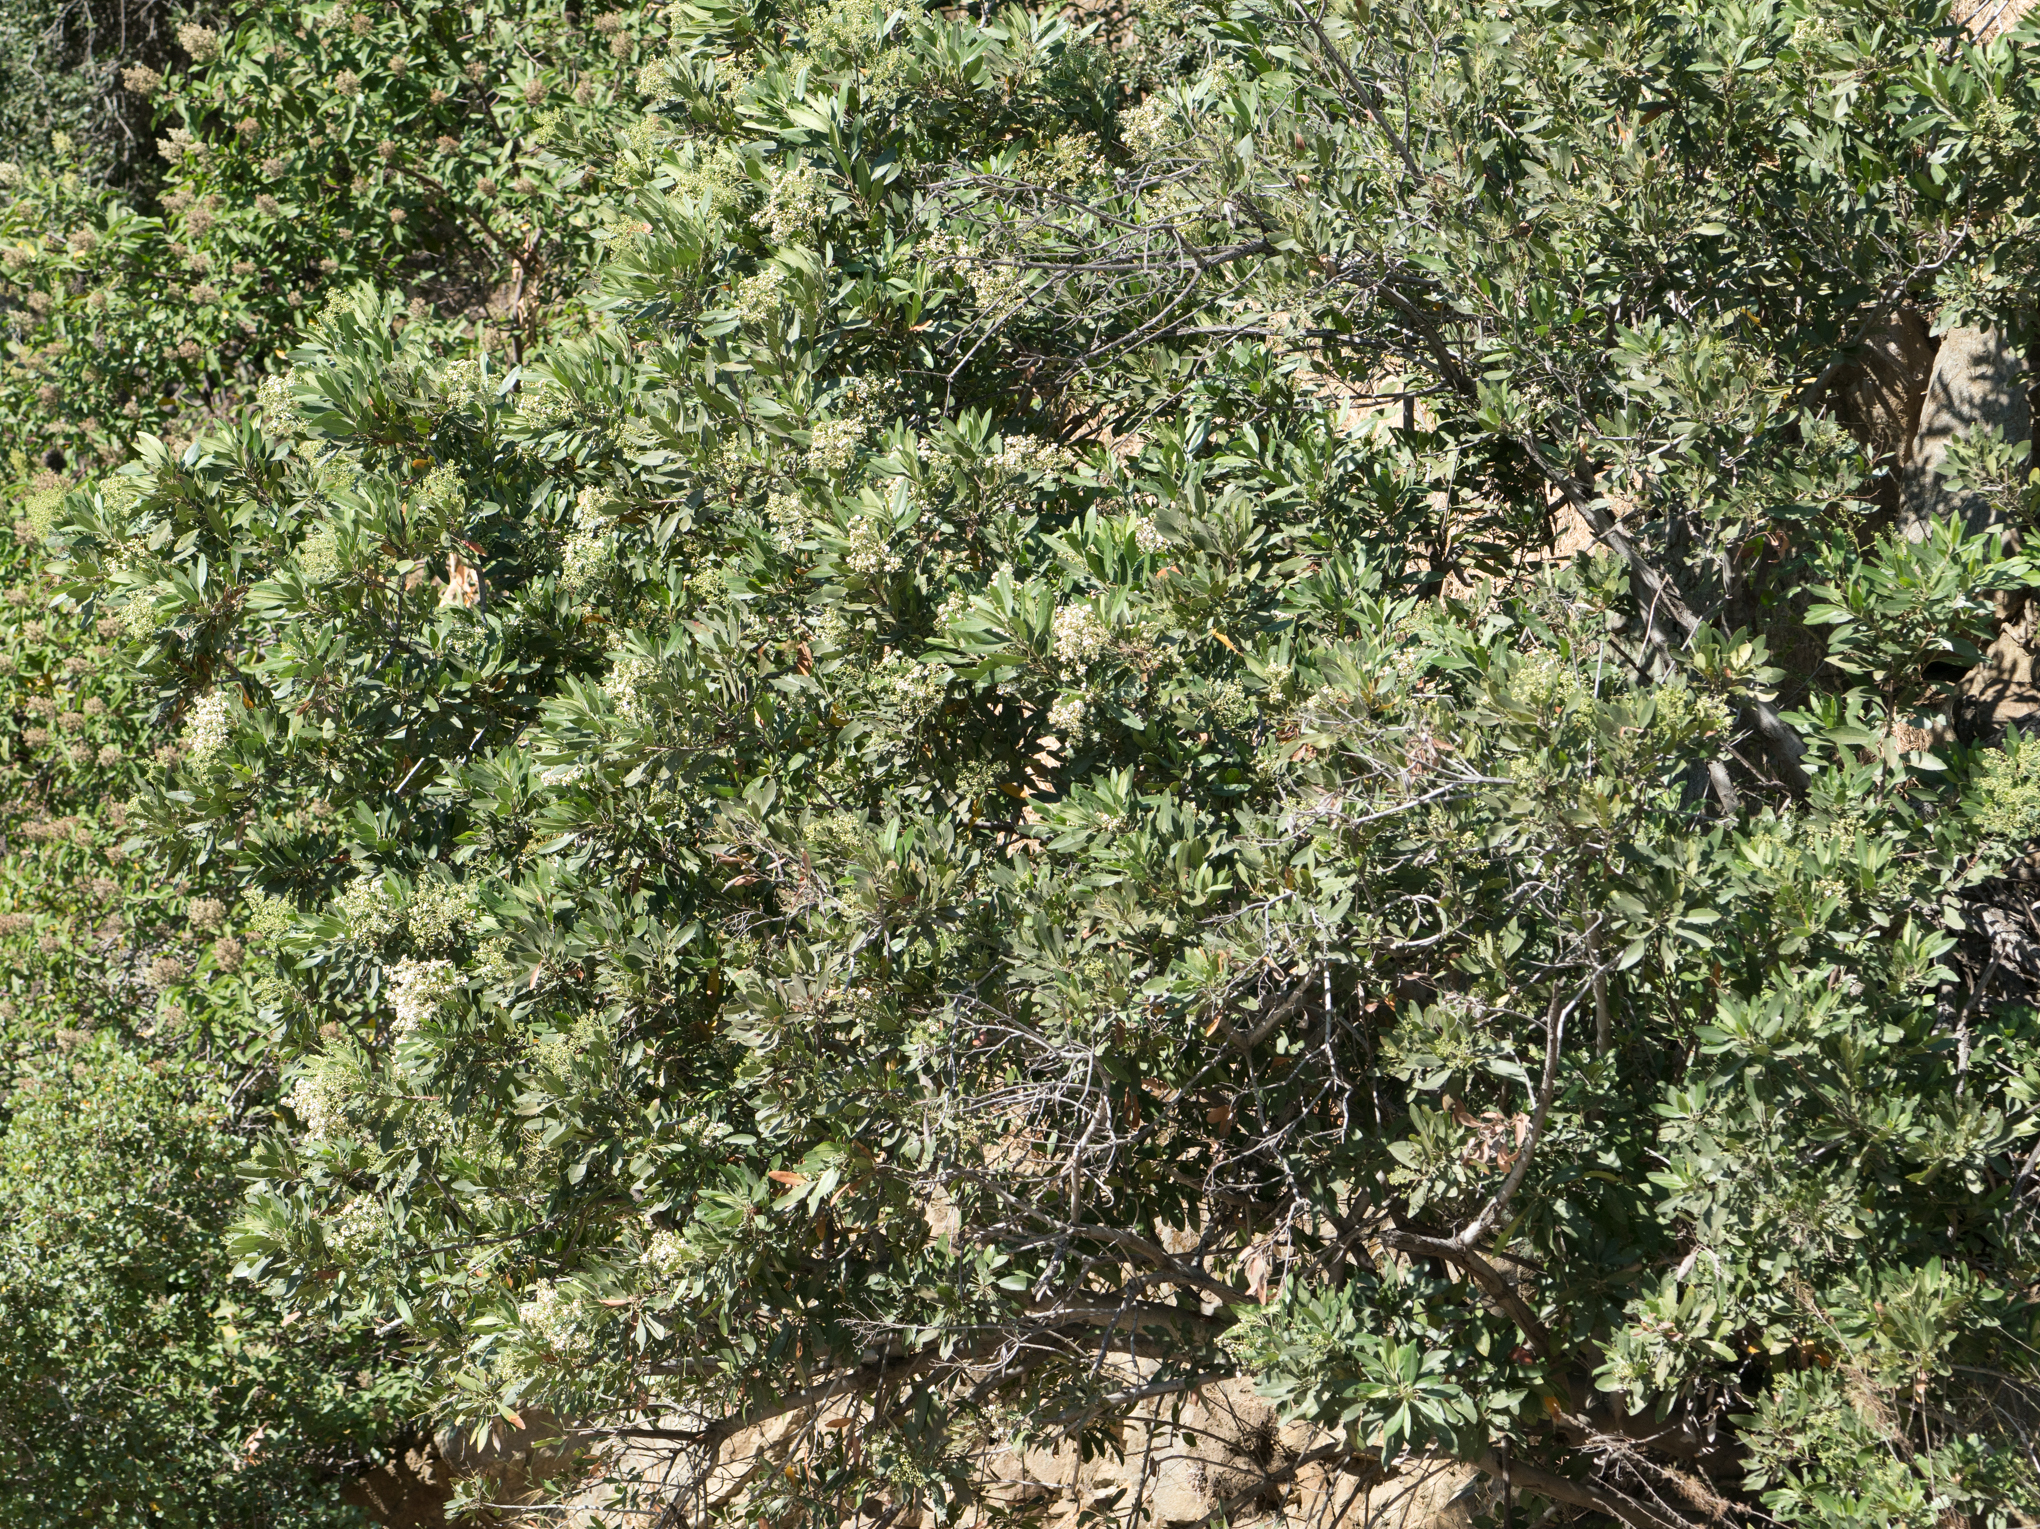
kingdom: Plantae
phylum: Tracheophyta
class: Magnoliopsida
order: Rosales
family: Rosaceae
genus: Heteromeles
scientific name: Heteromeles arbutifolia
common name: California-holly
